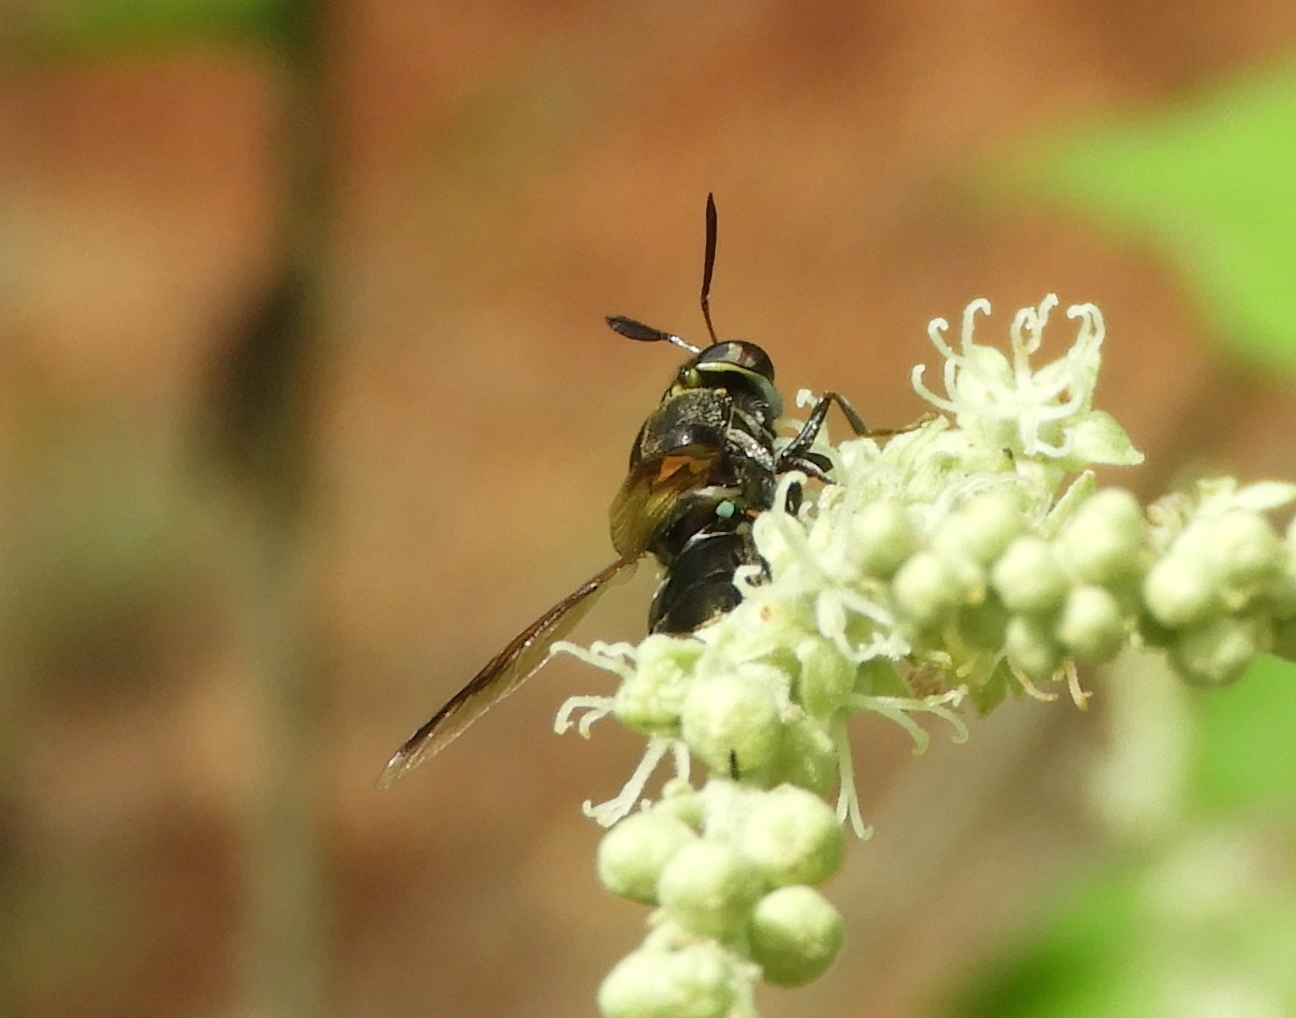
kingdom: Animalia
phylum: Arthropoda
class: Insecta
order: Diptera
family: Stratiomyidae
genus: Hoplitimyia
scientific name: Hoplitimyia
